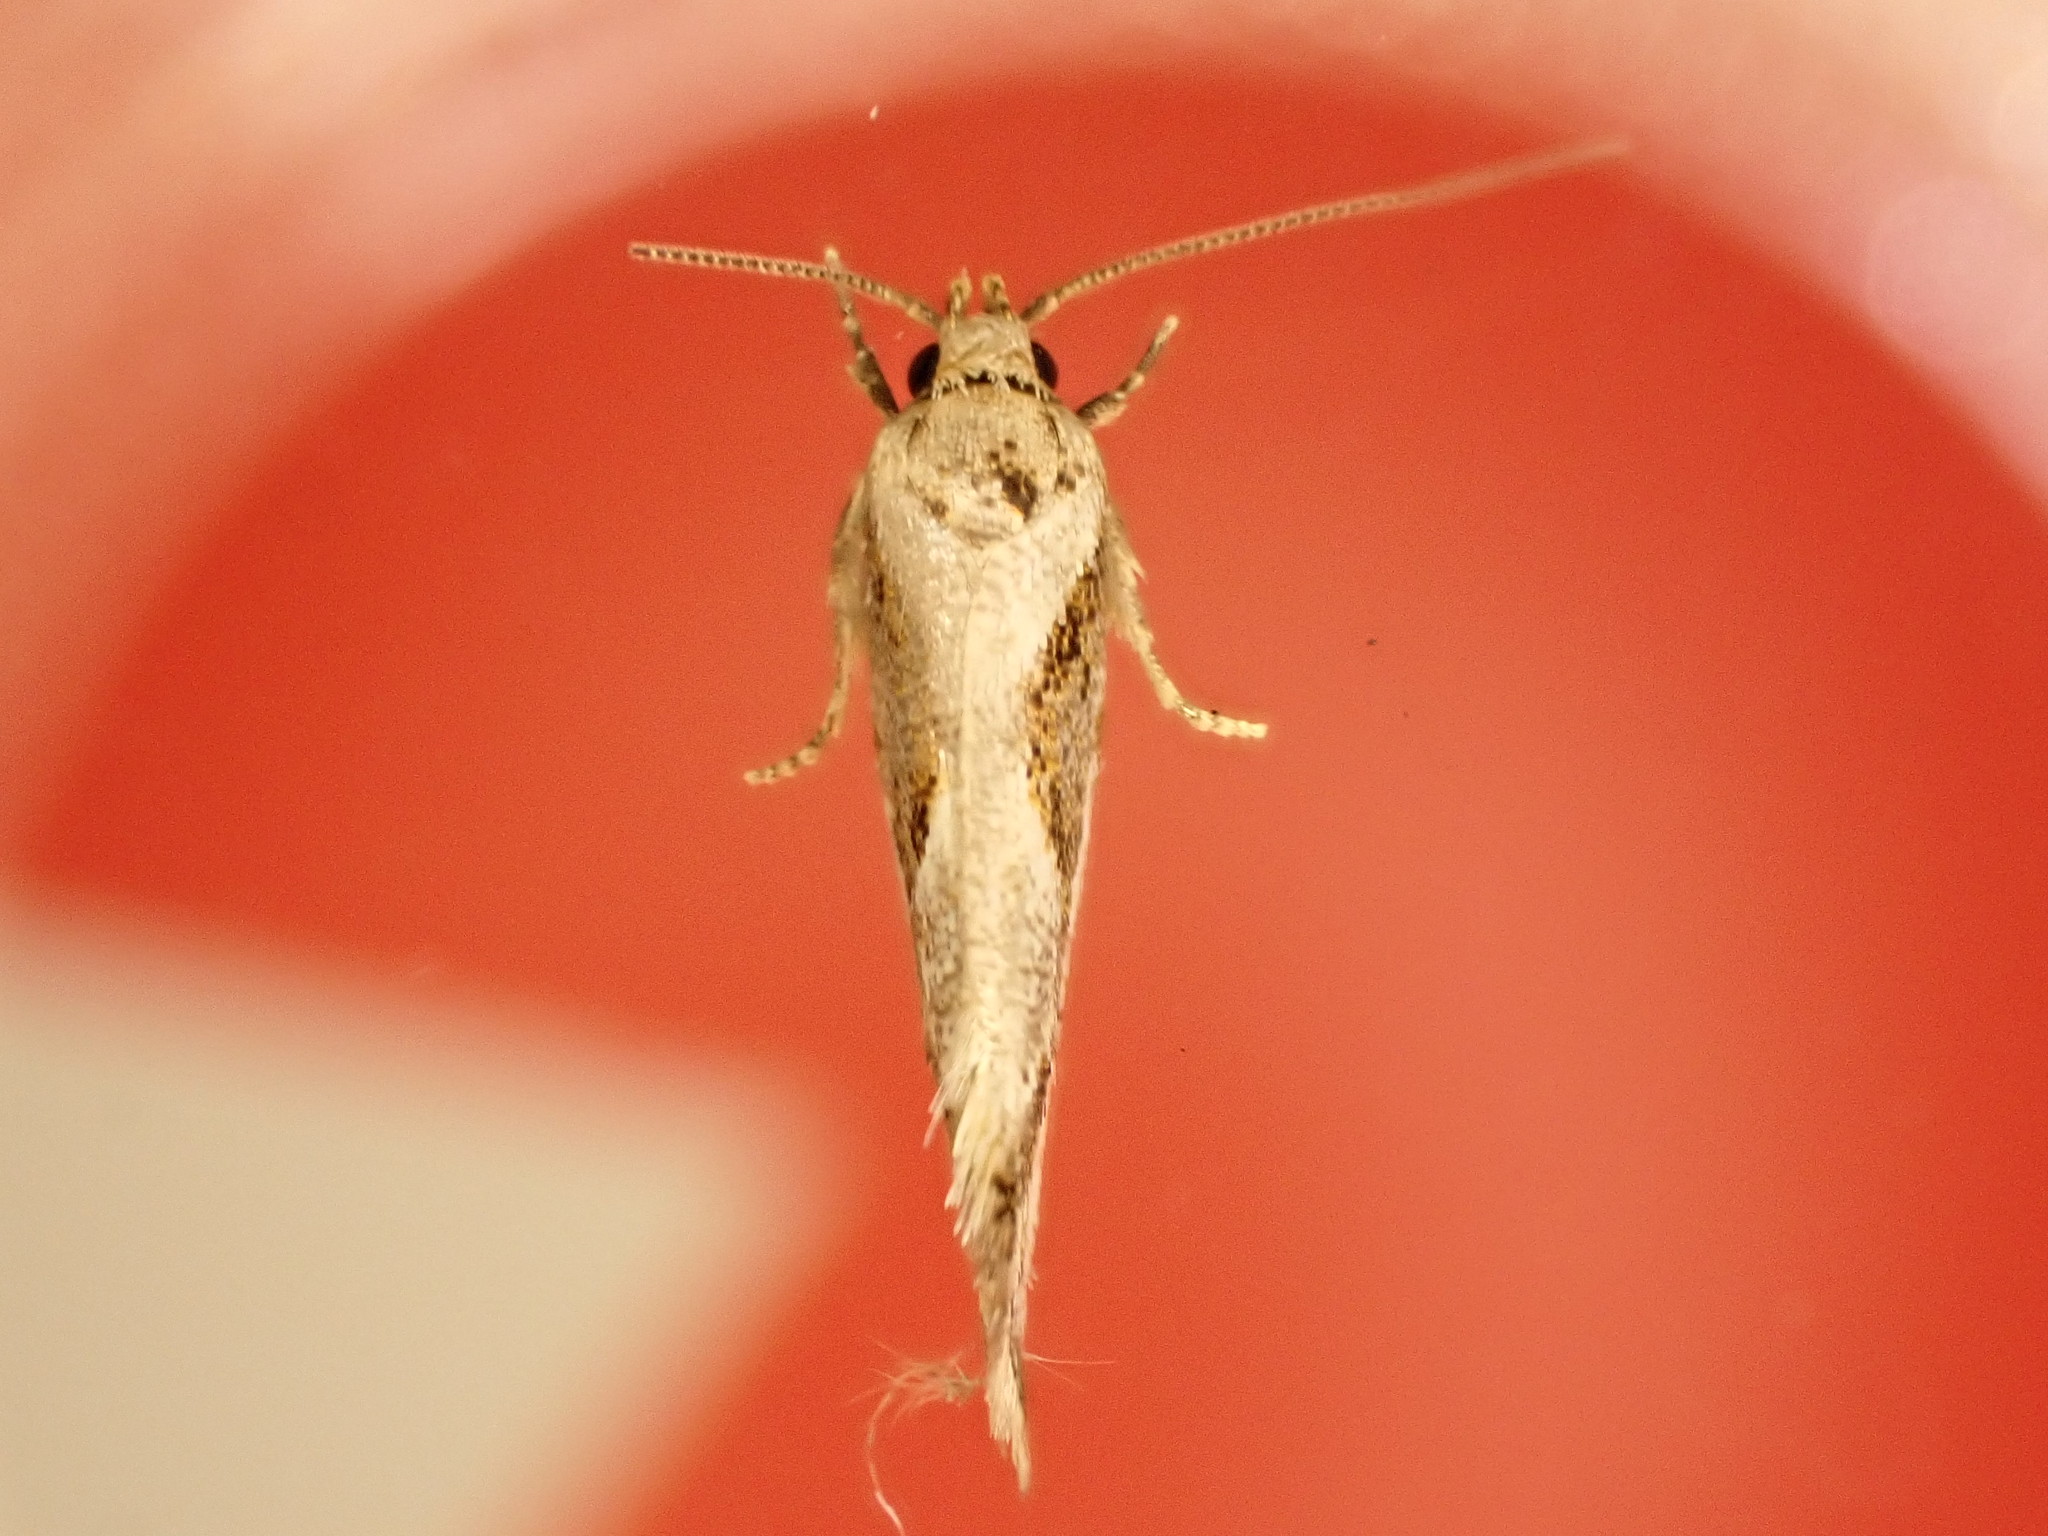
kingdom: Animalia
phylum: Arthropoda
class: Insecta
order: Lepidoptera
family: Oecophoridae
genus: Tingena
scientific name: Tingena hemimochla
